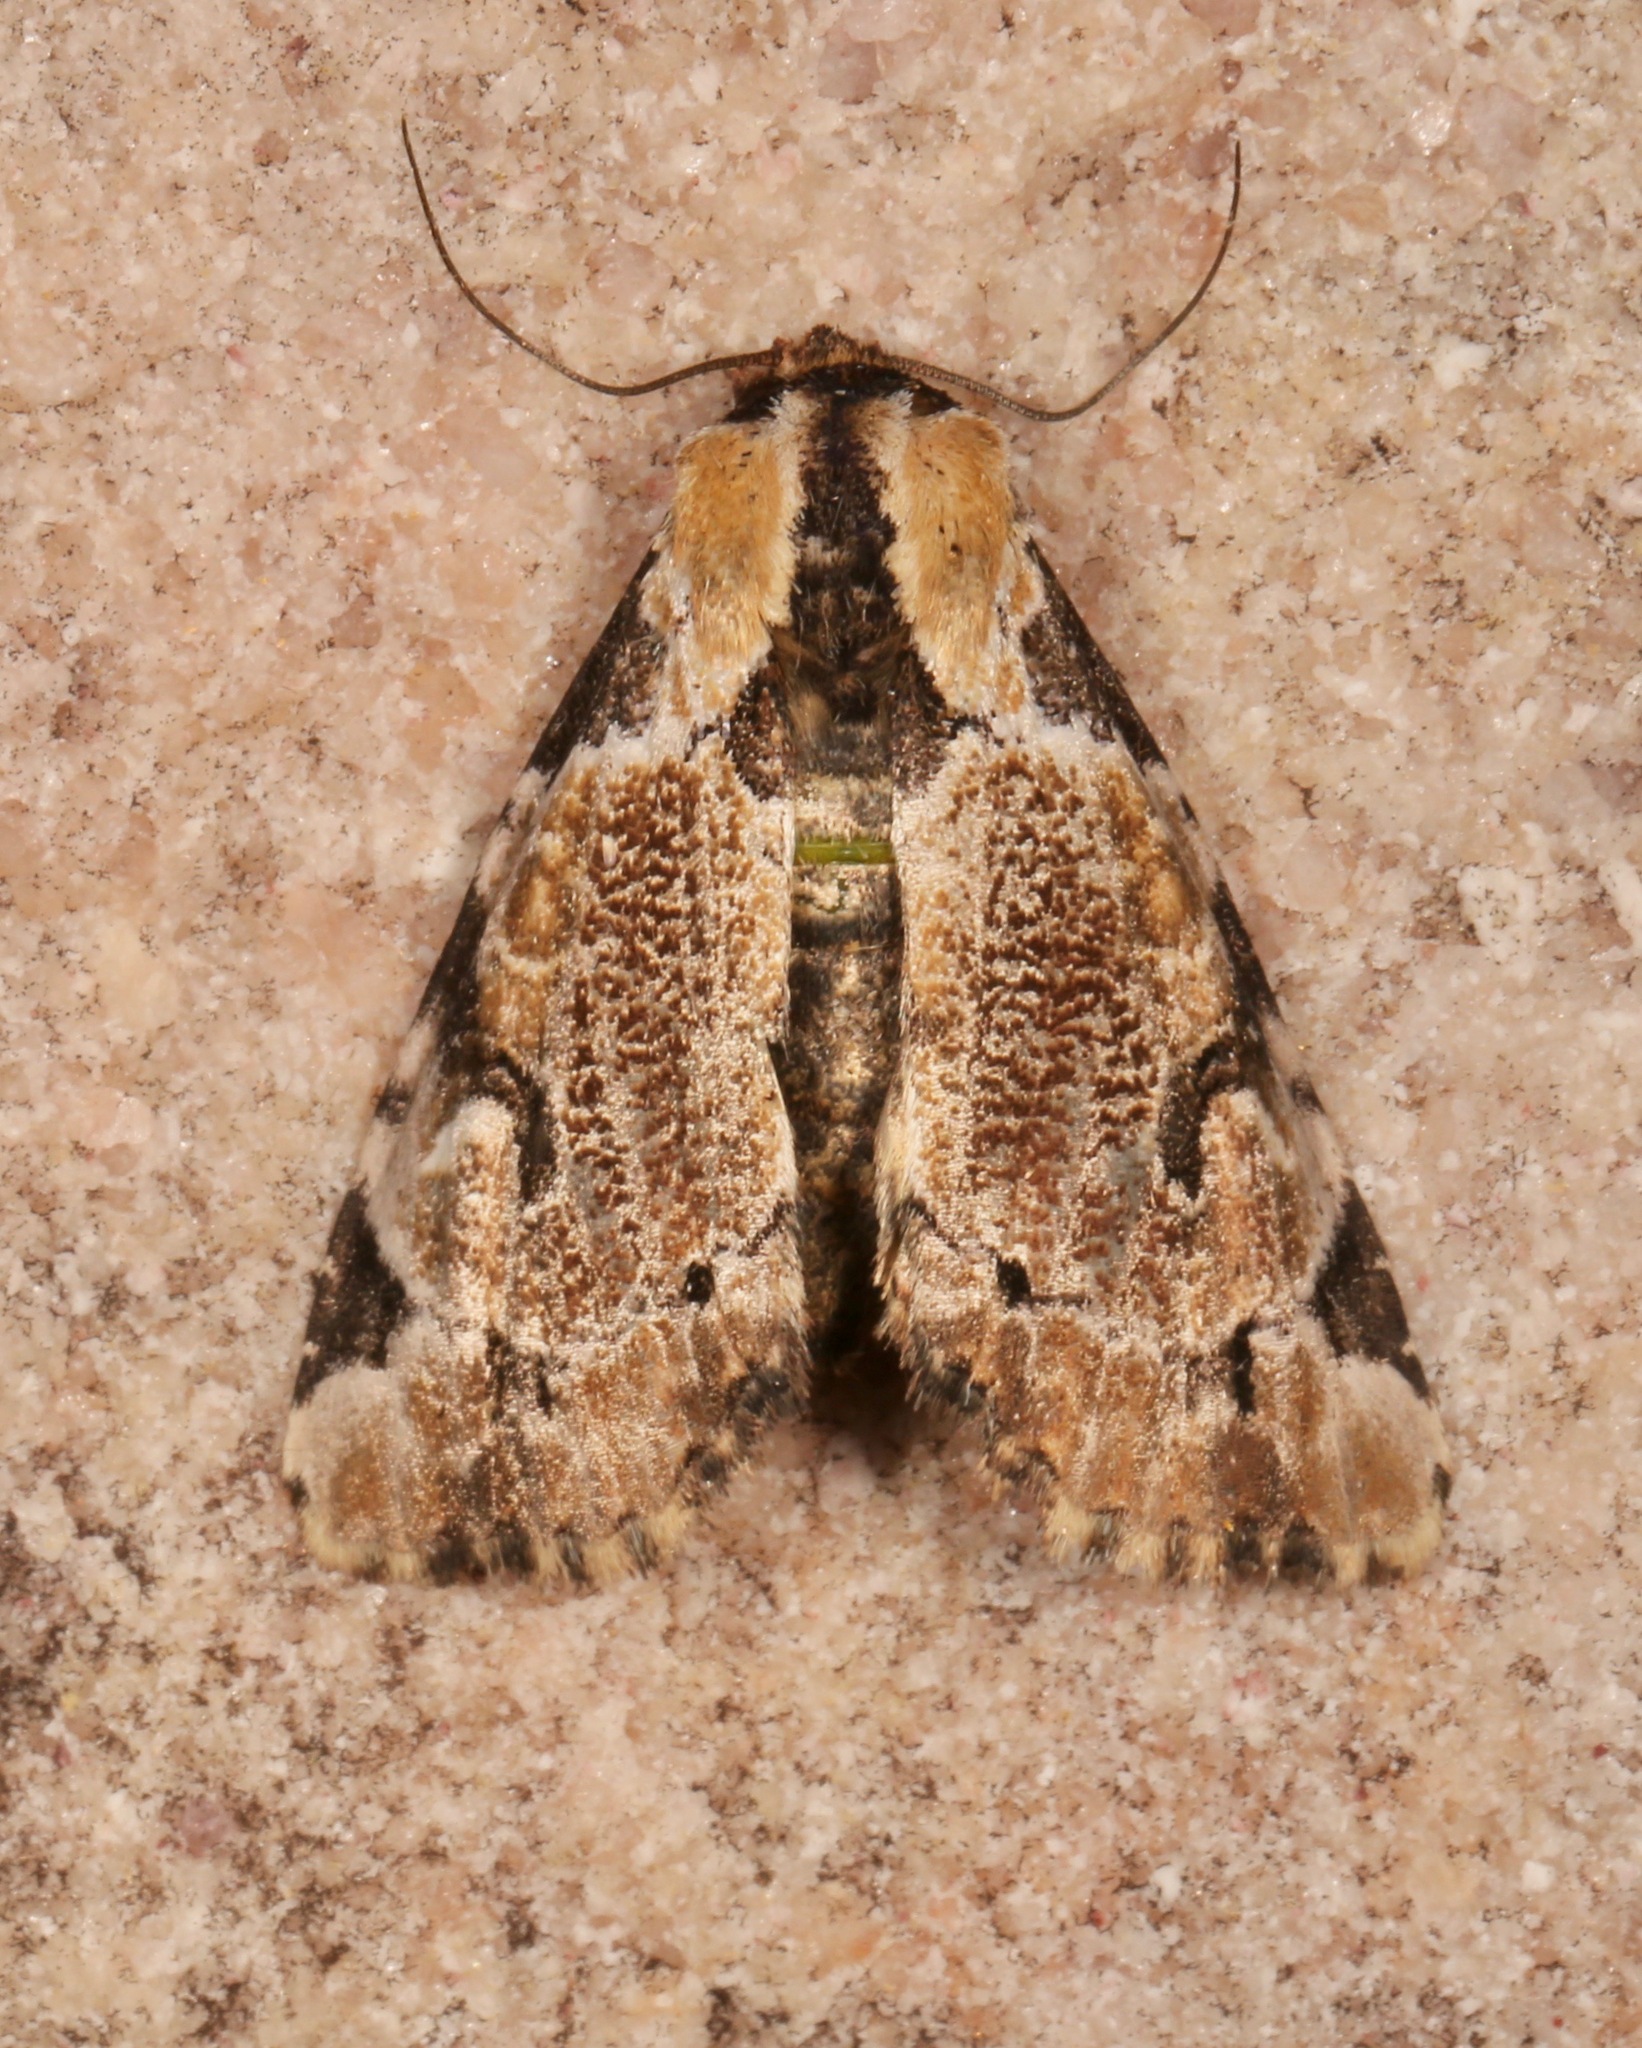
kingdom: Animalia
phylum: Arthropoda
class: Insecta
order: Lepidoptera
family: Noctuidae
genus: Stibaera
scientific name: Stibaera thyatiroides
